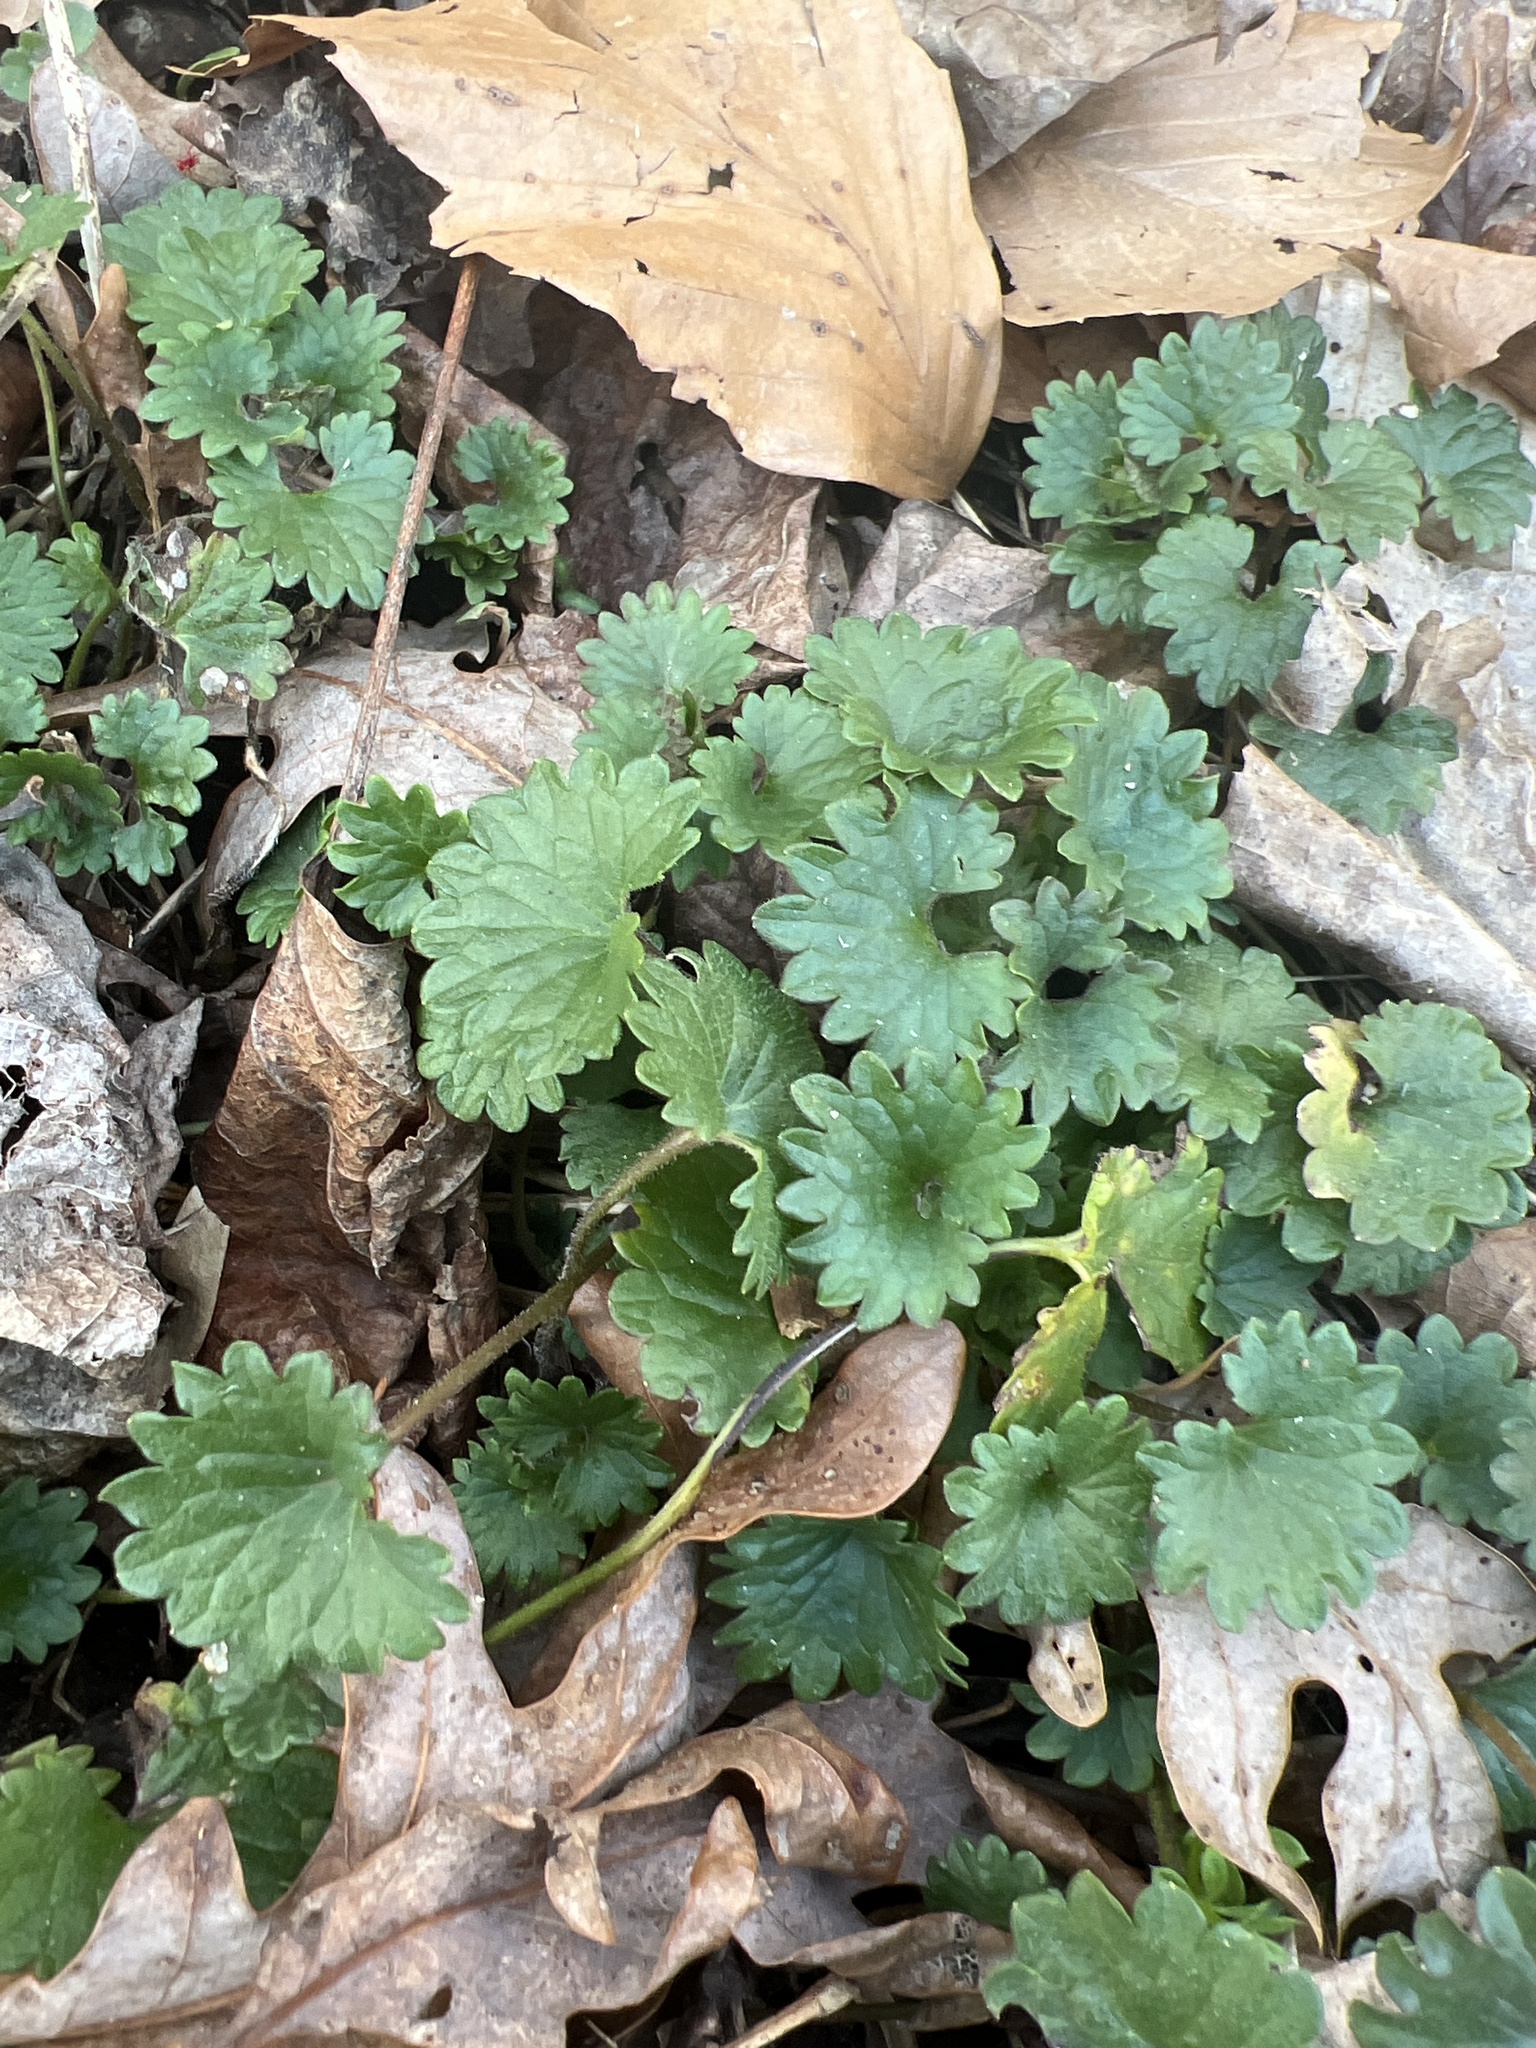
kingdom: Plantae
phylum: Tracheophyta
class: Magnoliopsida
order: Lamiales
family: Lamiaceae
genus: Glechoma
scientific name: Glechoma hederacea
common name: Ground ivy
